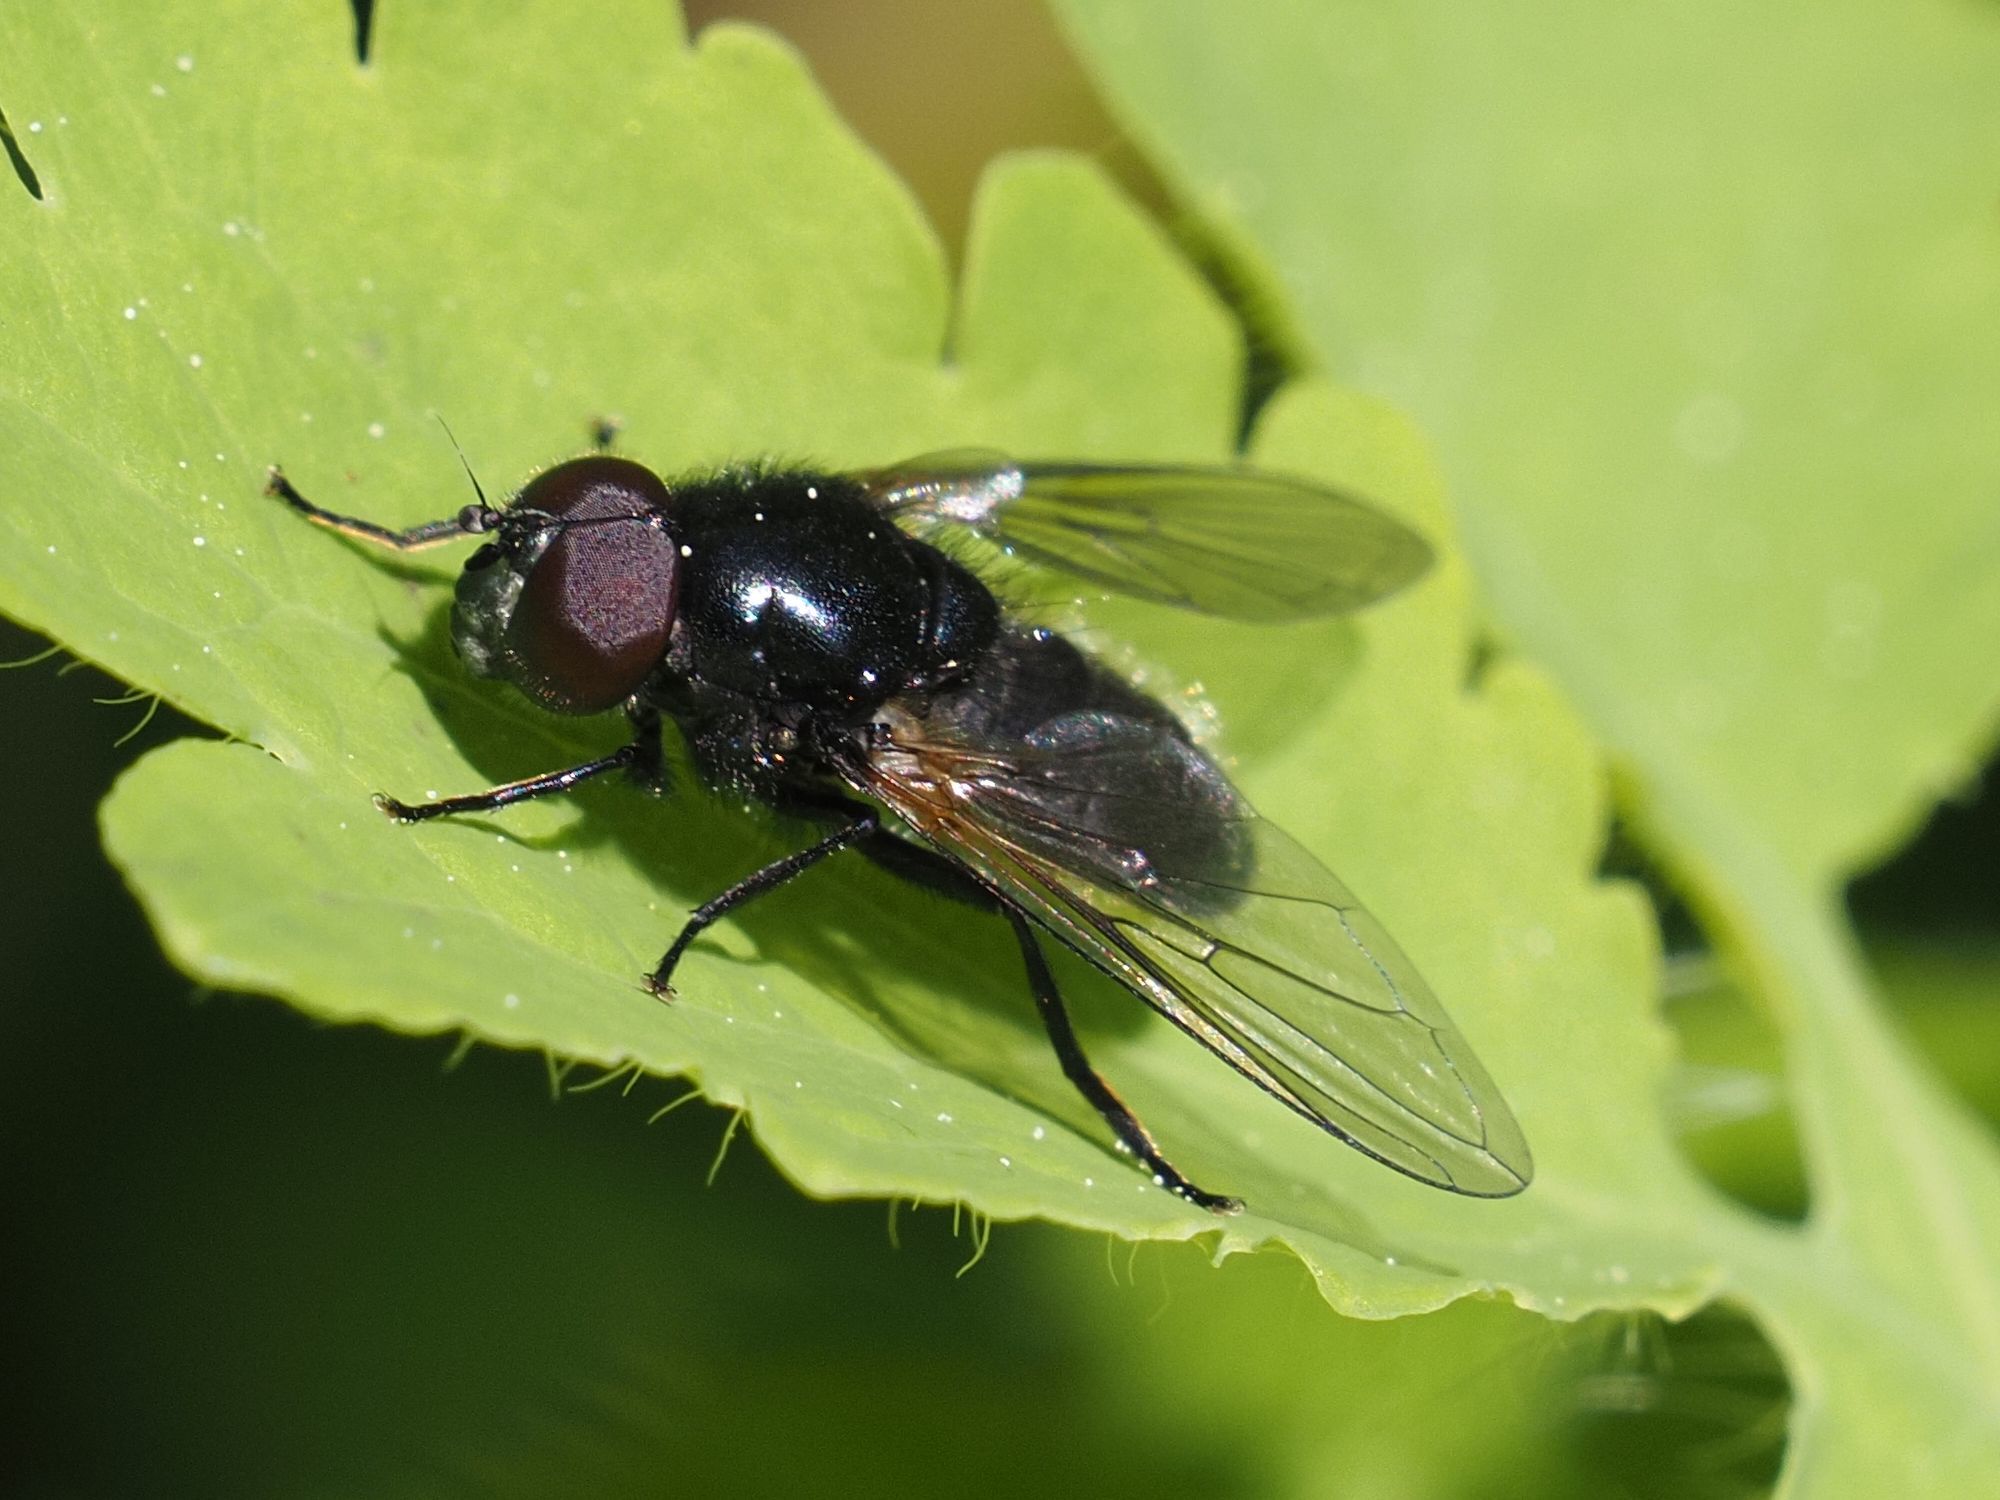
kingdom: Animalia
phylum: Arthropoda
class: Insecta
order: Diptera
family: Syrphidae
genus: Cheilosia
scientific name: Cheilosia impressa
